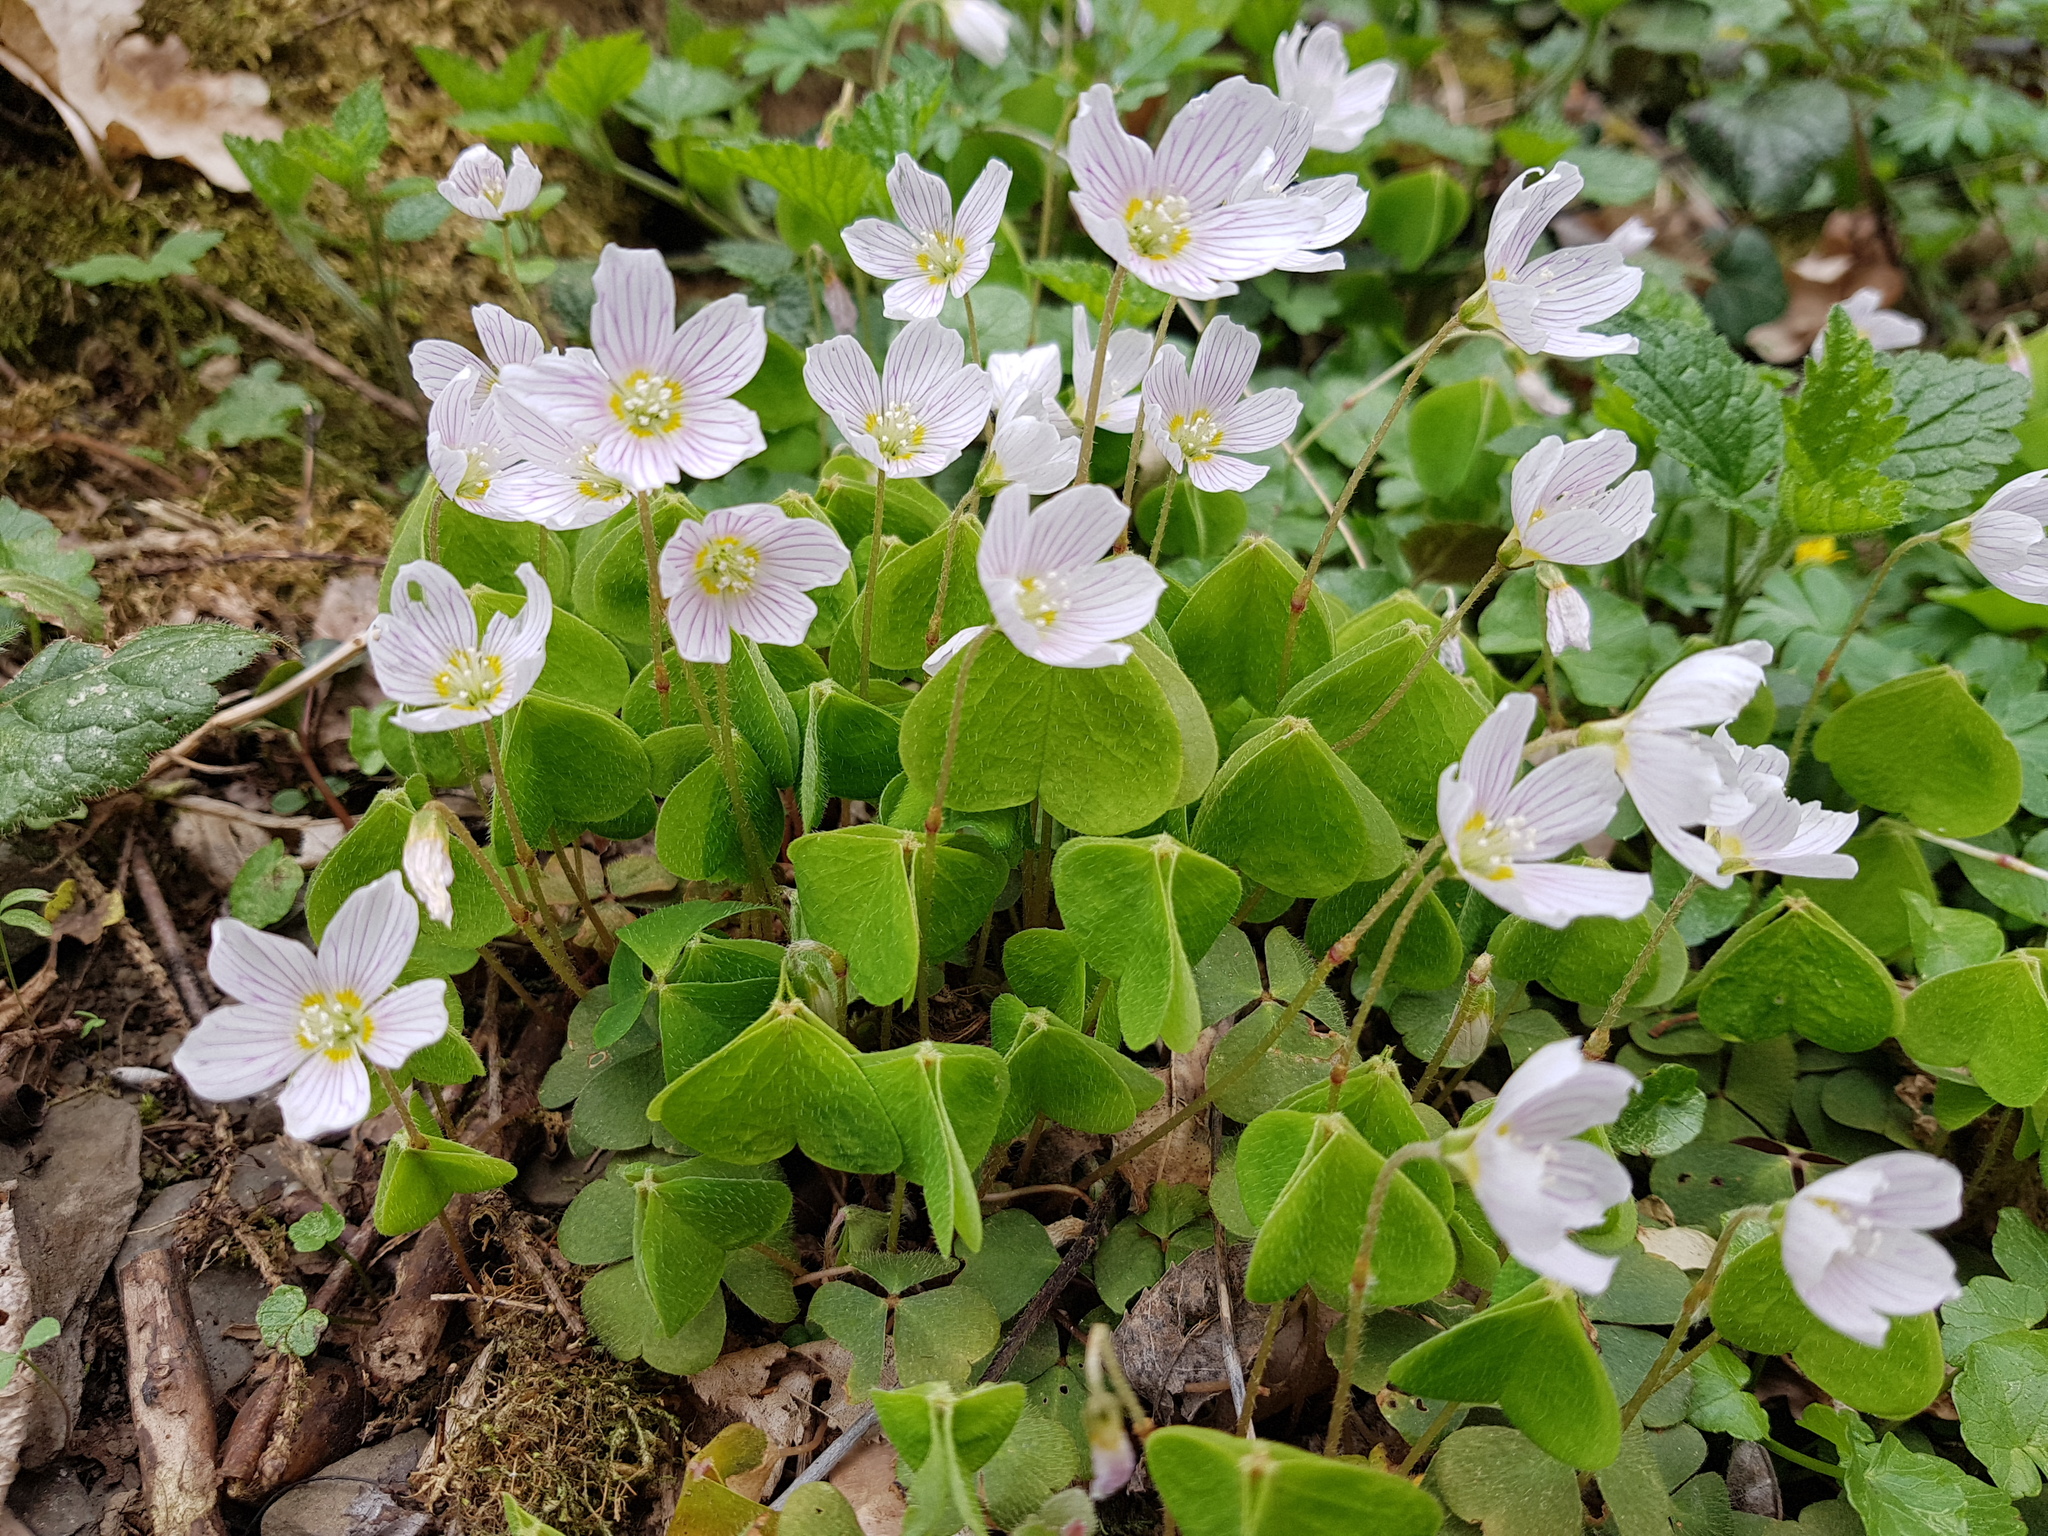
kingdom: Plantae
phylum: Tracheophyta
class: Magnoliopsida
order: Oxalidales
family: Oxalidaceae
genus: Oxalis
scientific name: Oxalis acetosella
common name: Wood-sorrel
